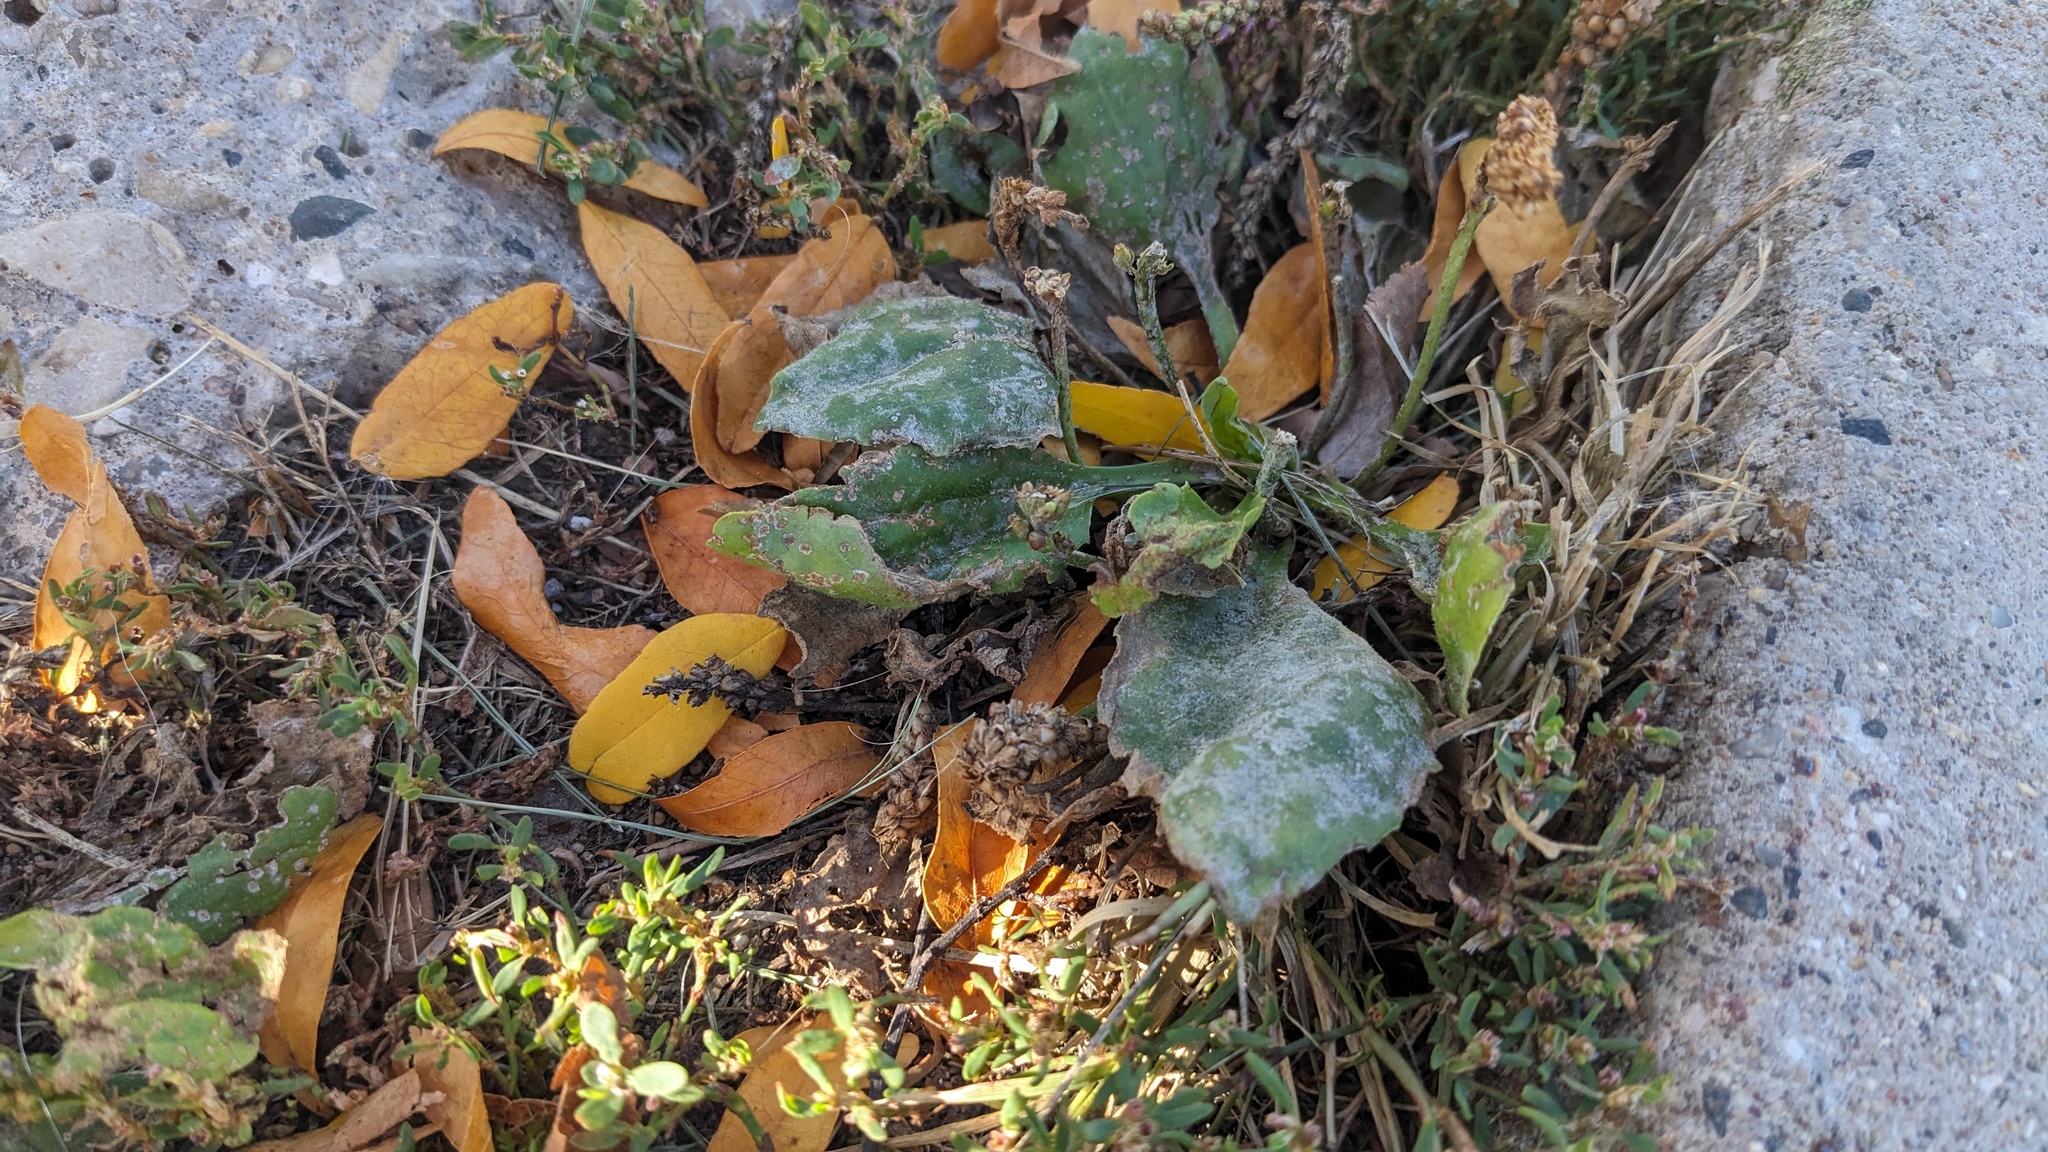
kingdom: Fungi
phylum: Ascomycota
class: Leotiomycetes
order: Helotiales
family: Erysiphaceae
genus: Golovinomyces
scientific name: Golovinomyces sordidus
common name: Plantain mildew
